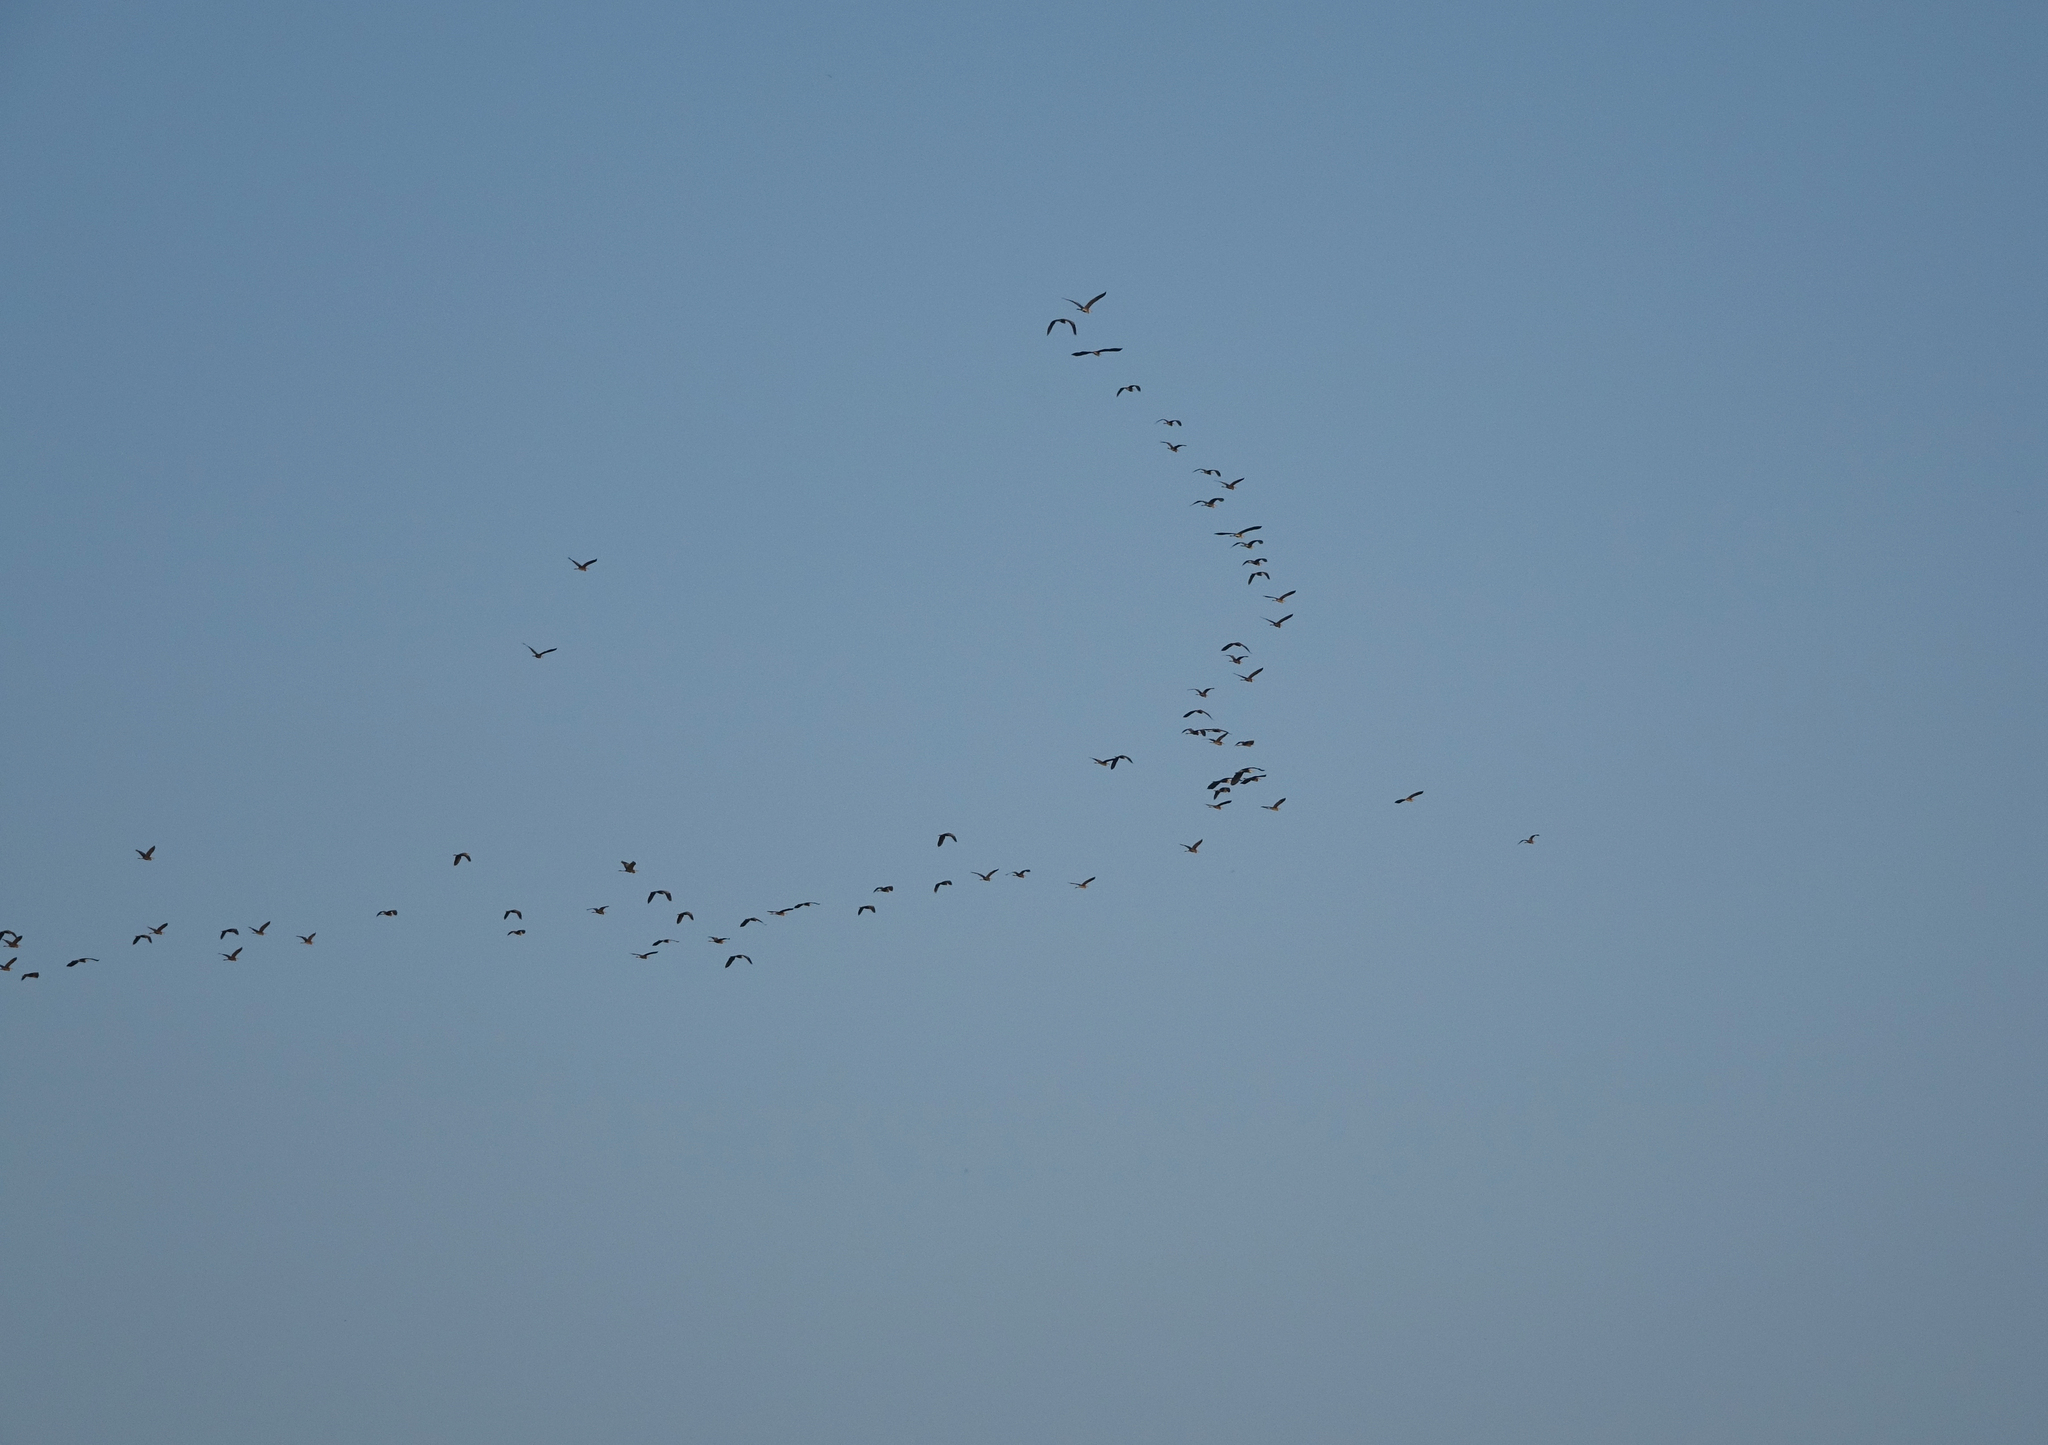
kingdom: Animalia
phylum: Chordata
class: Aves
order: Pelecaniformes
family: Ardeidae
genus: Ardea
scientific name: Ardea cinerea
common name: Grey heron
